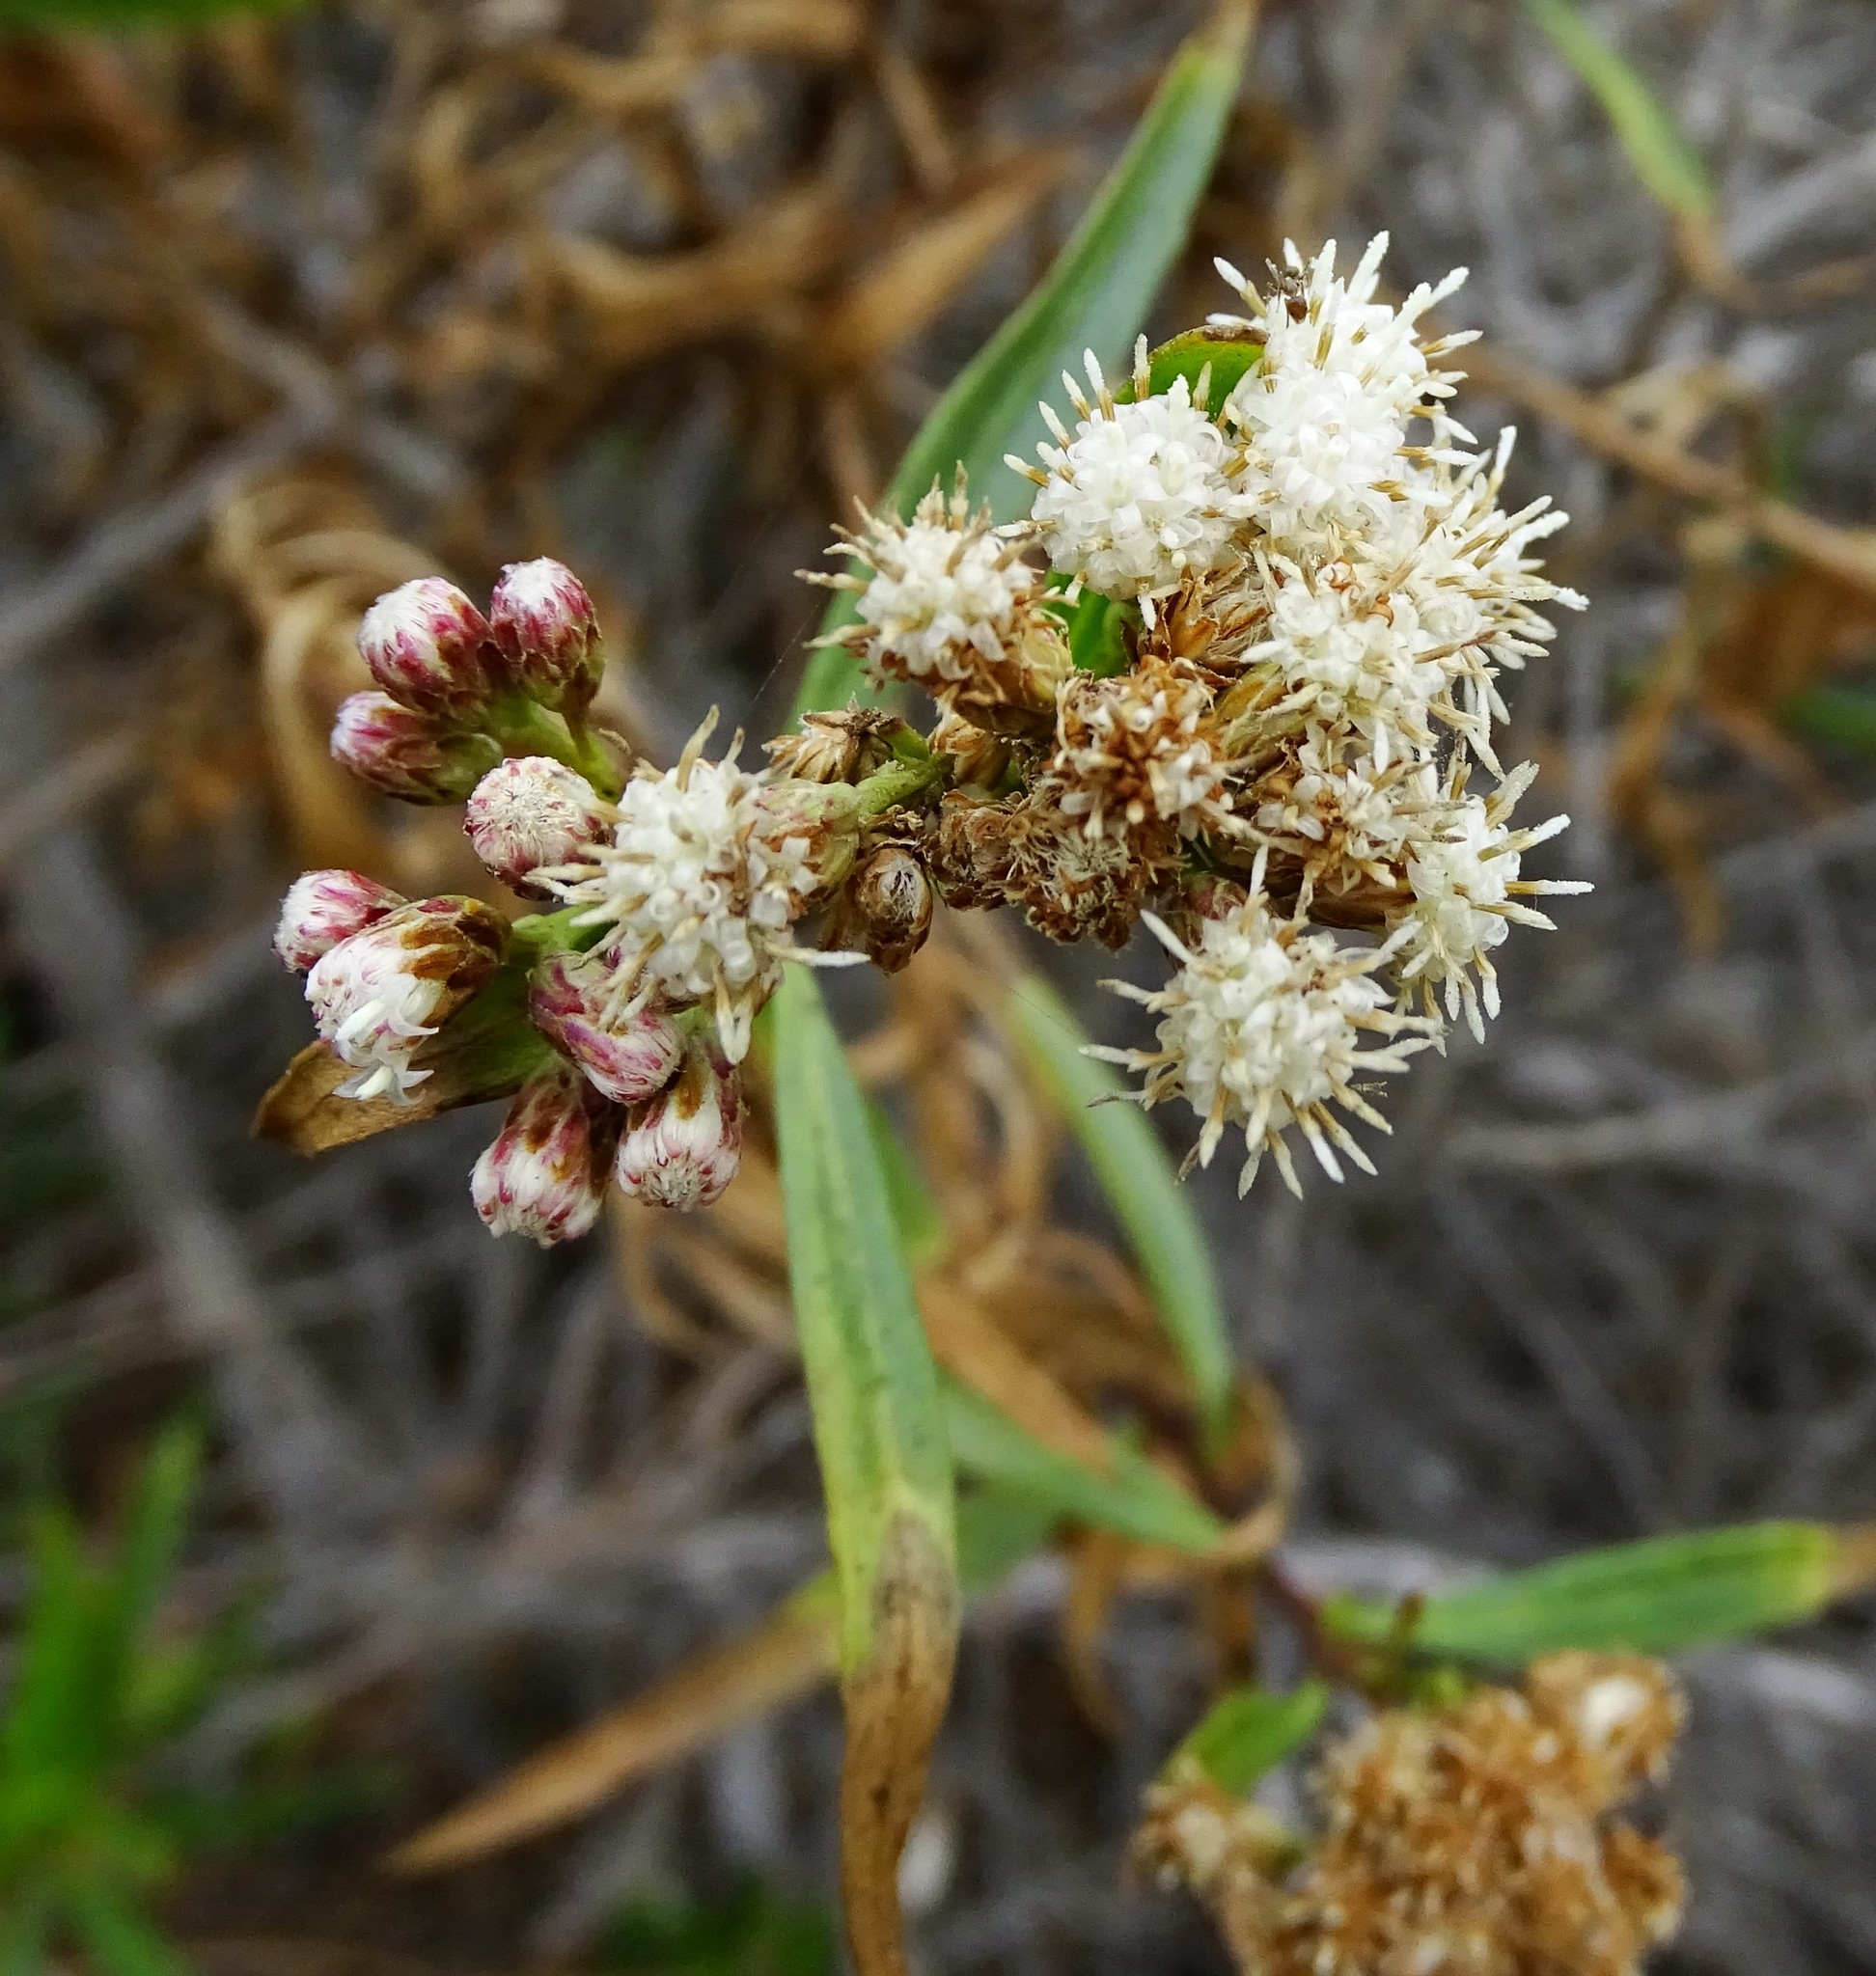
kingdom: Plantae
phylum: Tracheophyta
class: Magnoliopsida
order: Asterales
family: Asteraceae
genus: Baccharis
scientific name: Baccharis salicifolia
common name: Sticky baccharis
